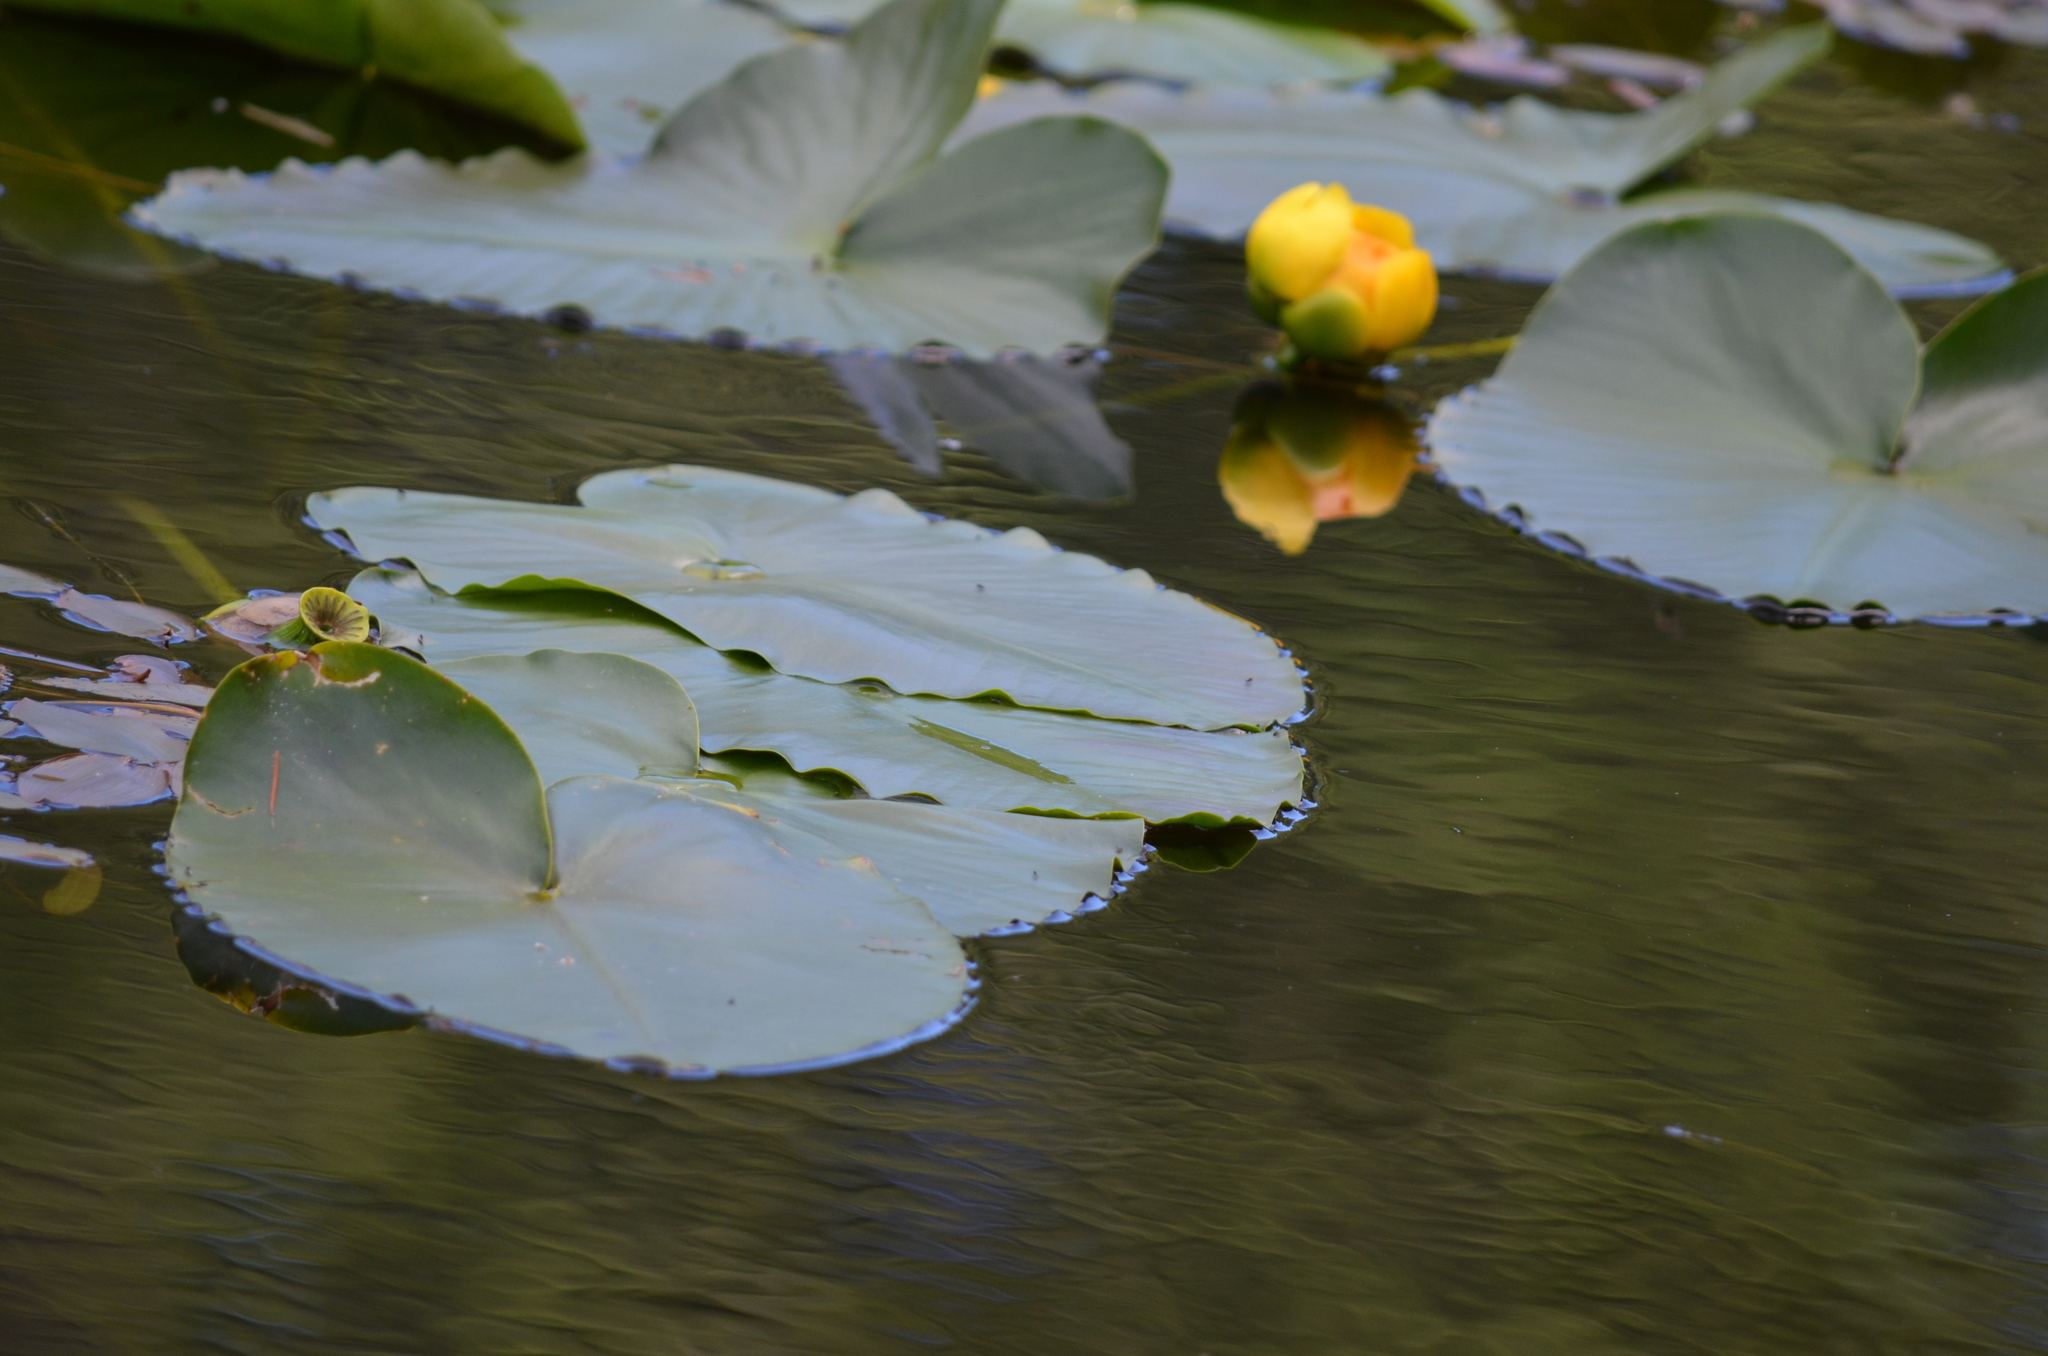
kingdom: Plantae
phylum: Tracheophyta
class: Magnoliopsida
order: Nymphaeales
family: Nymphaeaceae
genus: Nuphar
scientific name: Nuphar polysepala
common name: Rocky mountain cow-lily
